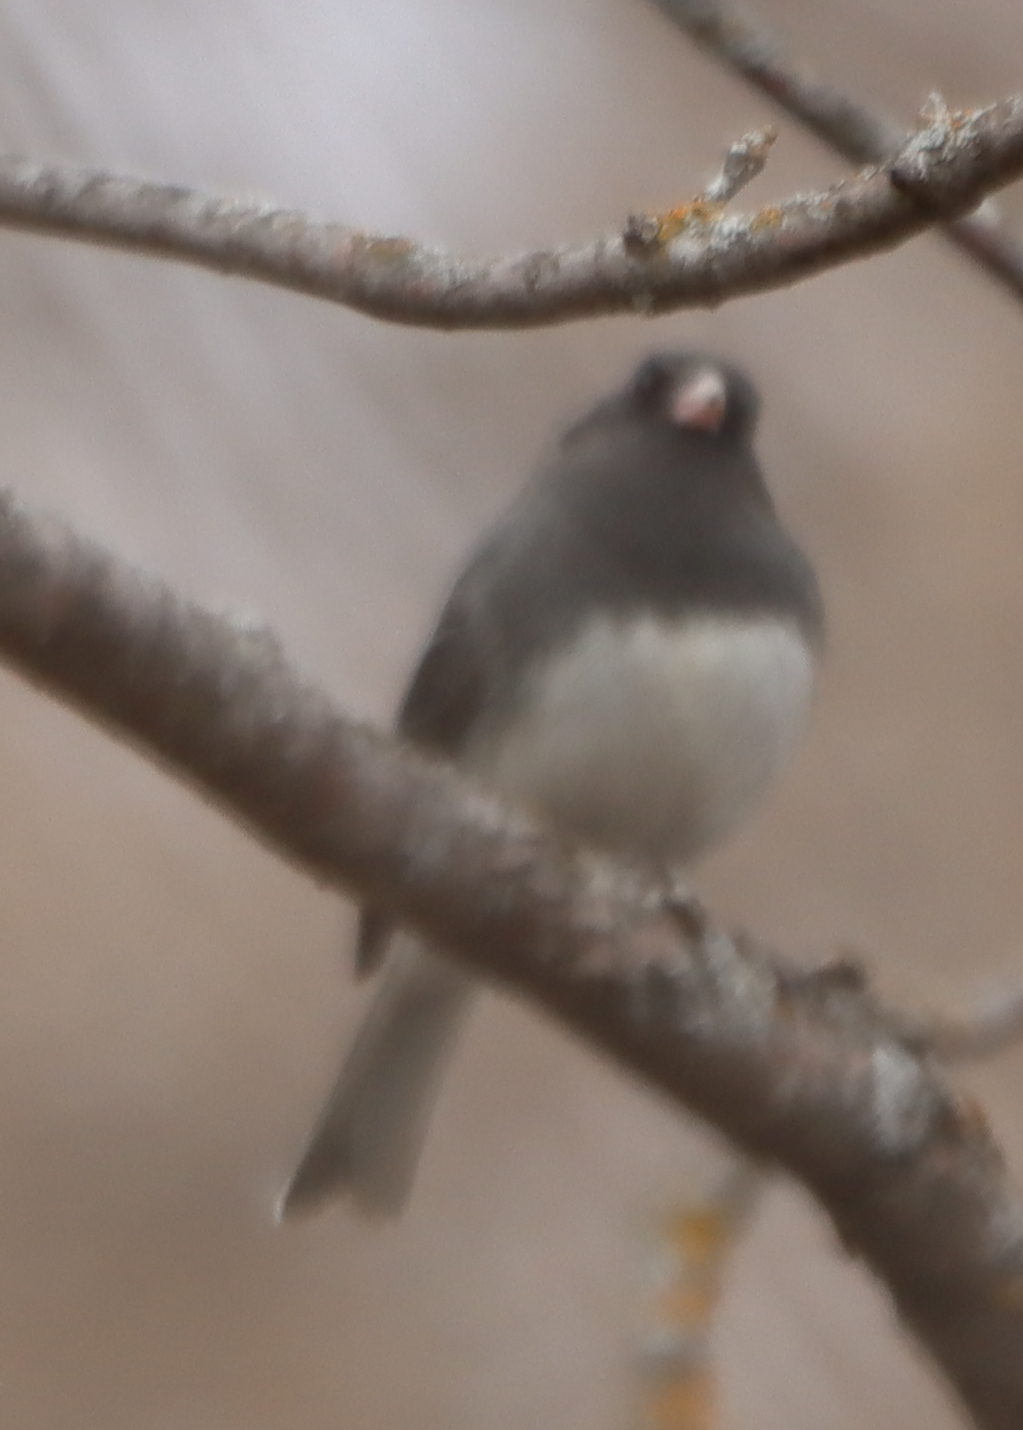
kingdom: Animalia
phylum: Chordata
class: Aves
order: Passeriformes
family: Passerellidae
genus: Junco
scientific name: Junco hyemalis
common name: Dark-eyed junco
